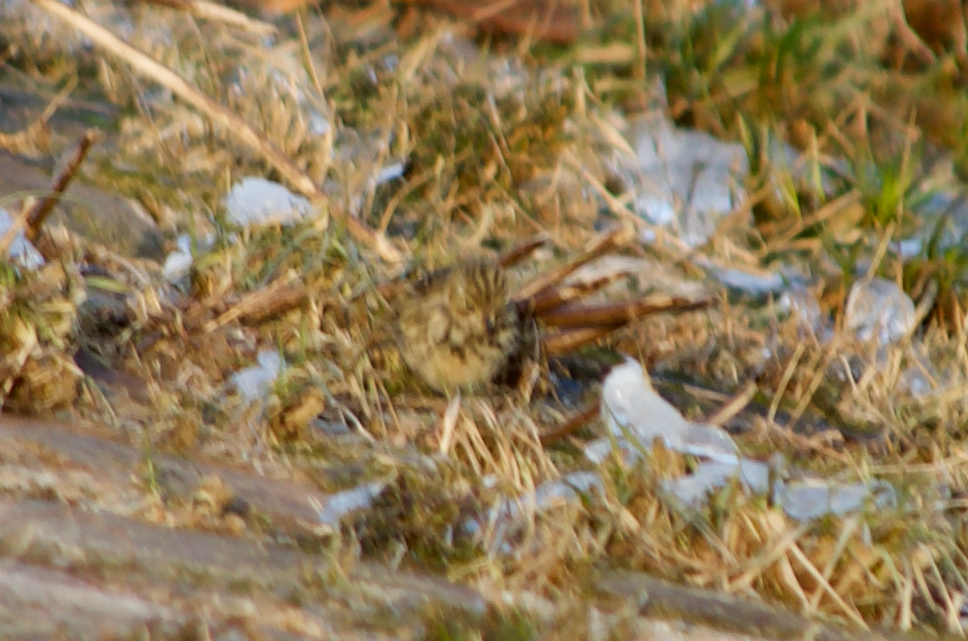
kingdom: Animalia
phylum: Chordata
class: Aves
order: Passeriformes
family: Motacillidae
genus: Anthus
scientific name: Anthus pratensis
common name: Meadow pipit
